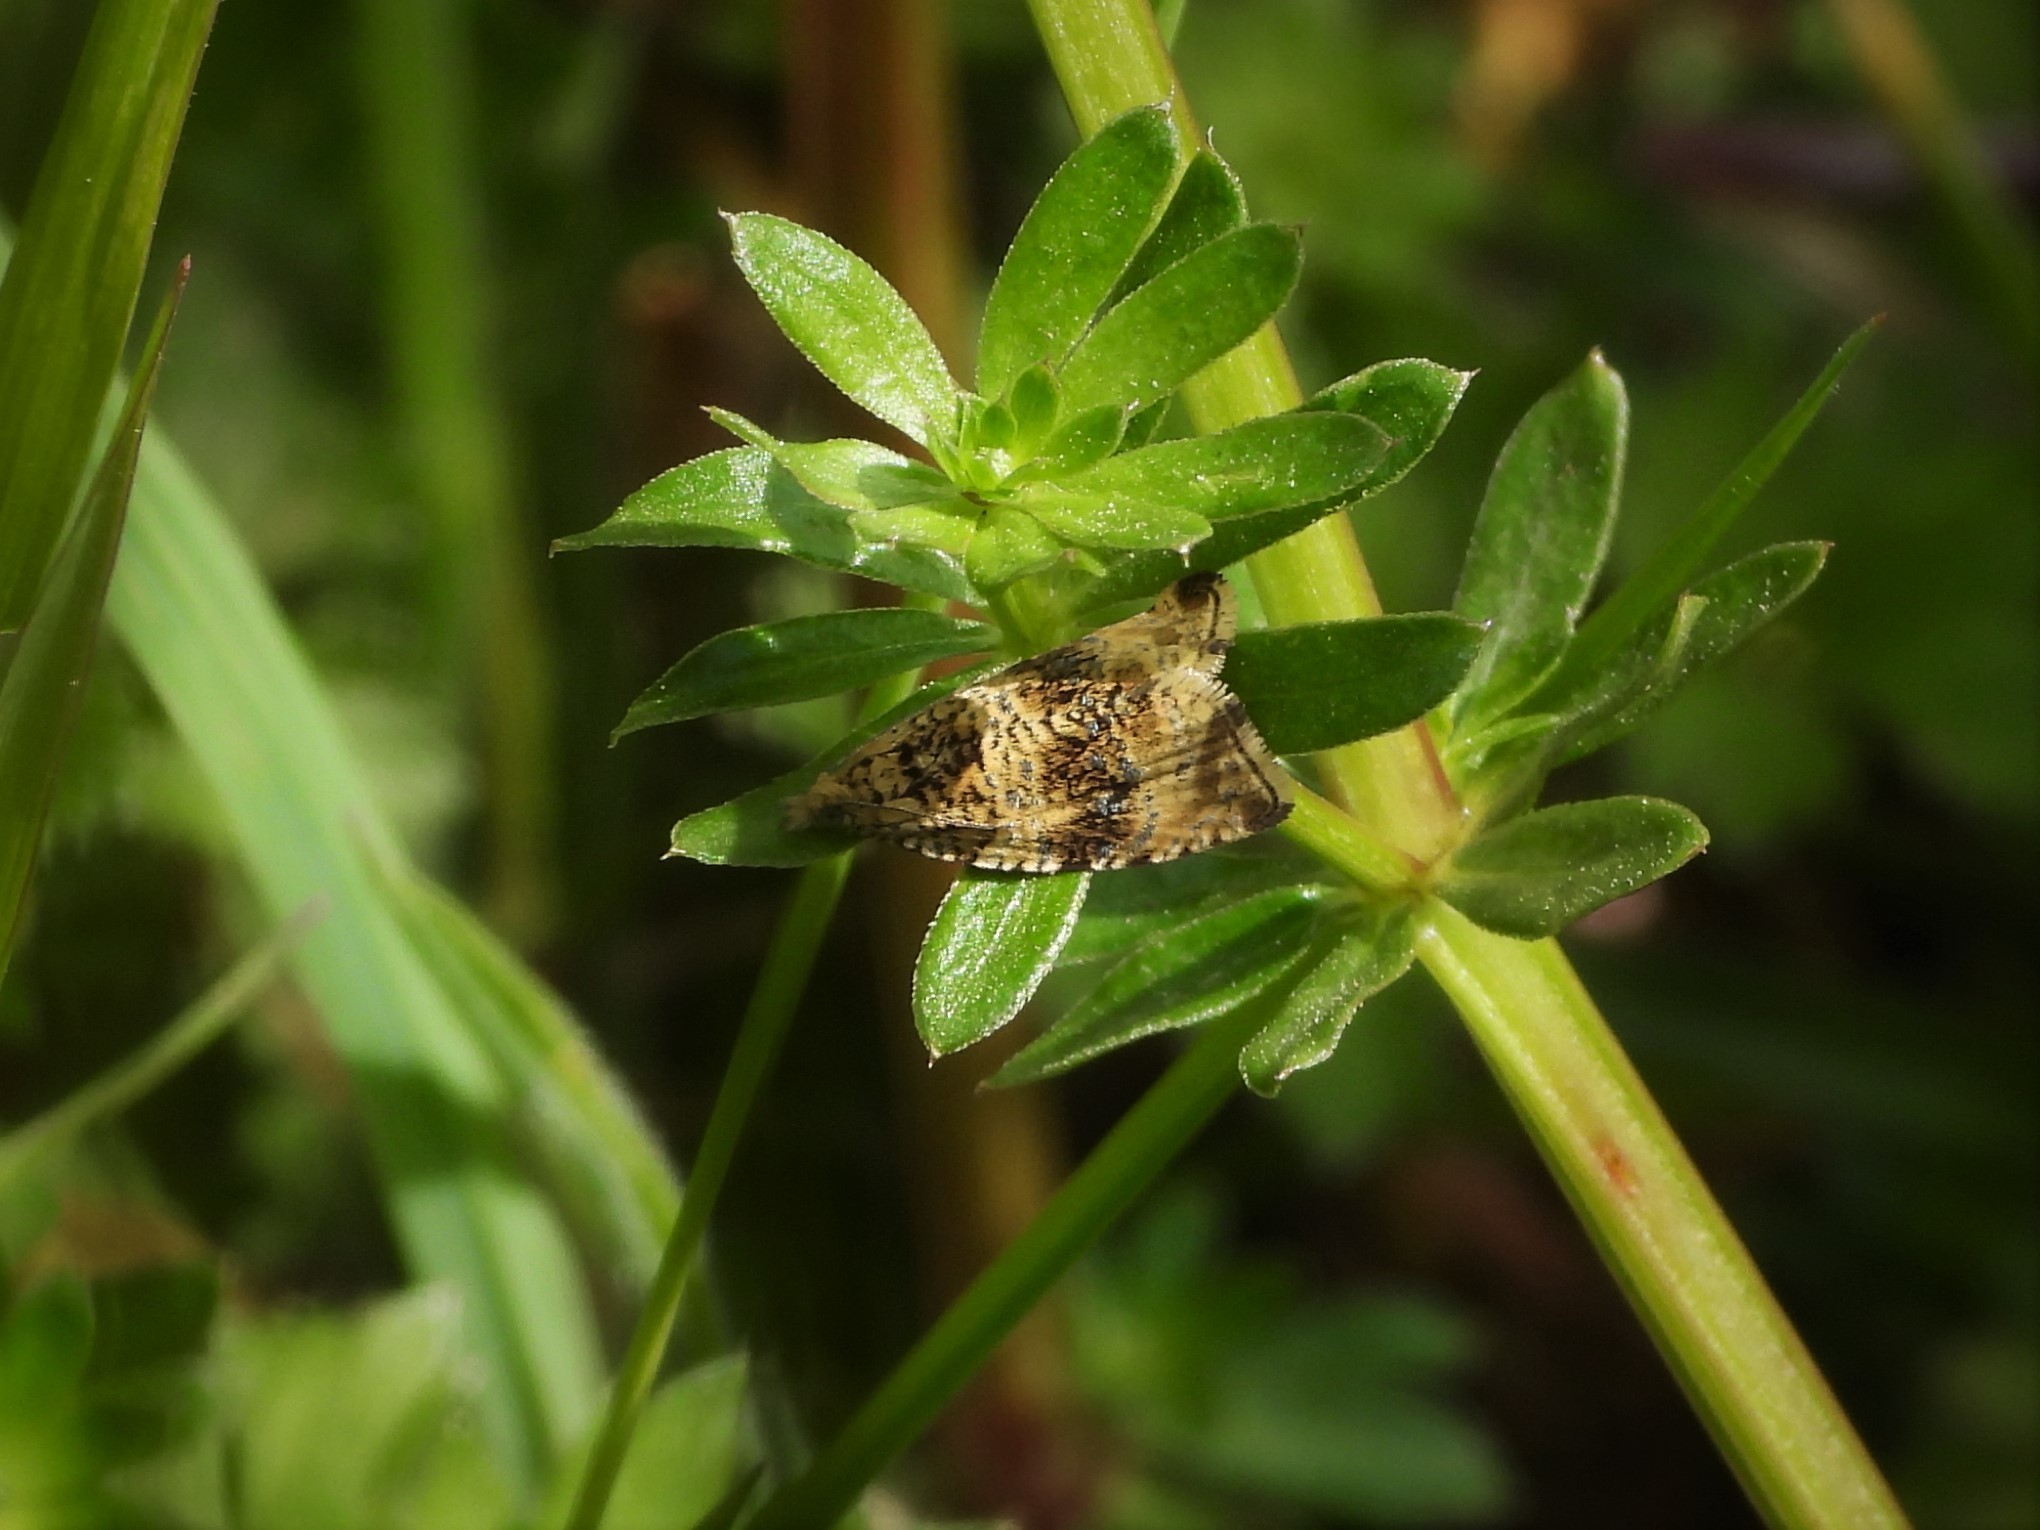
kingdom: Animalia
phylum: Arthropoda
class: Insecta
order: Lepidoptera
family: Tortricidae
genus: Syricoris
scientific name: Syricoris lacunana
